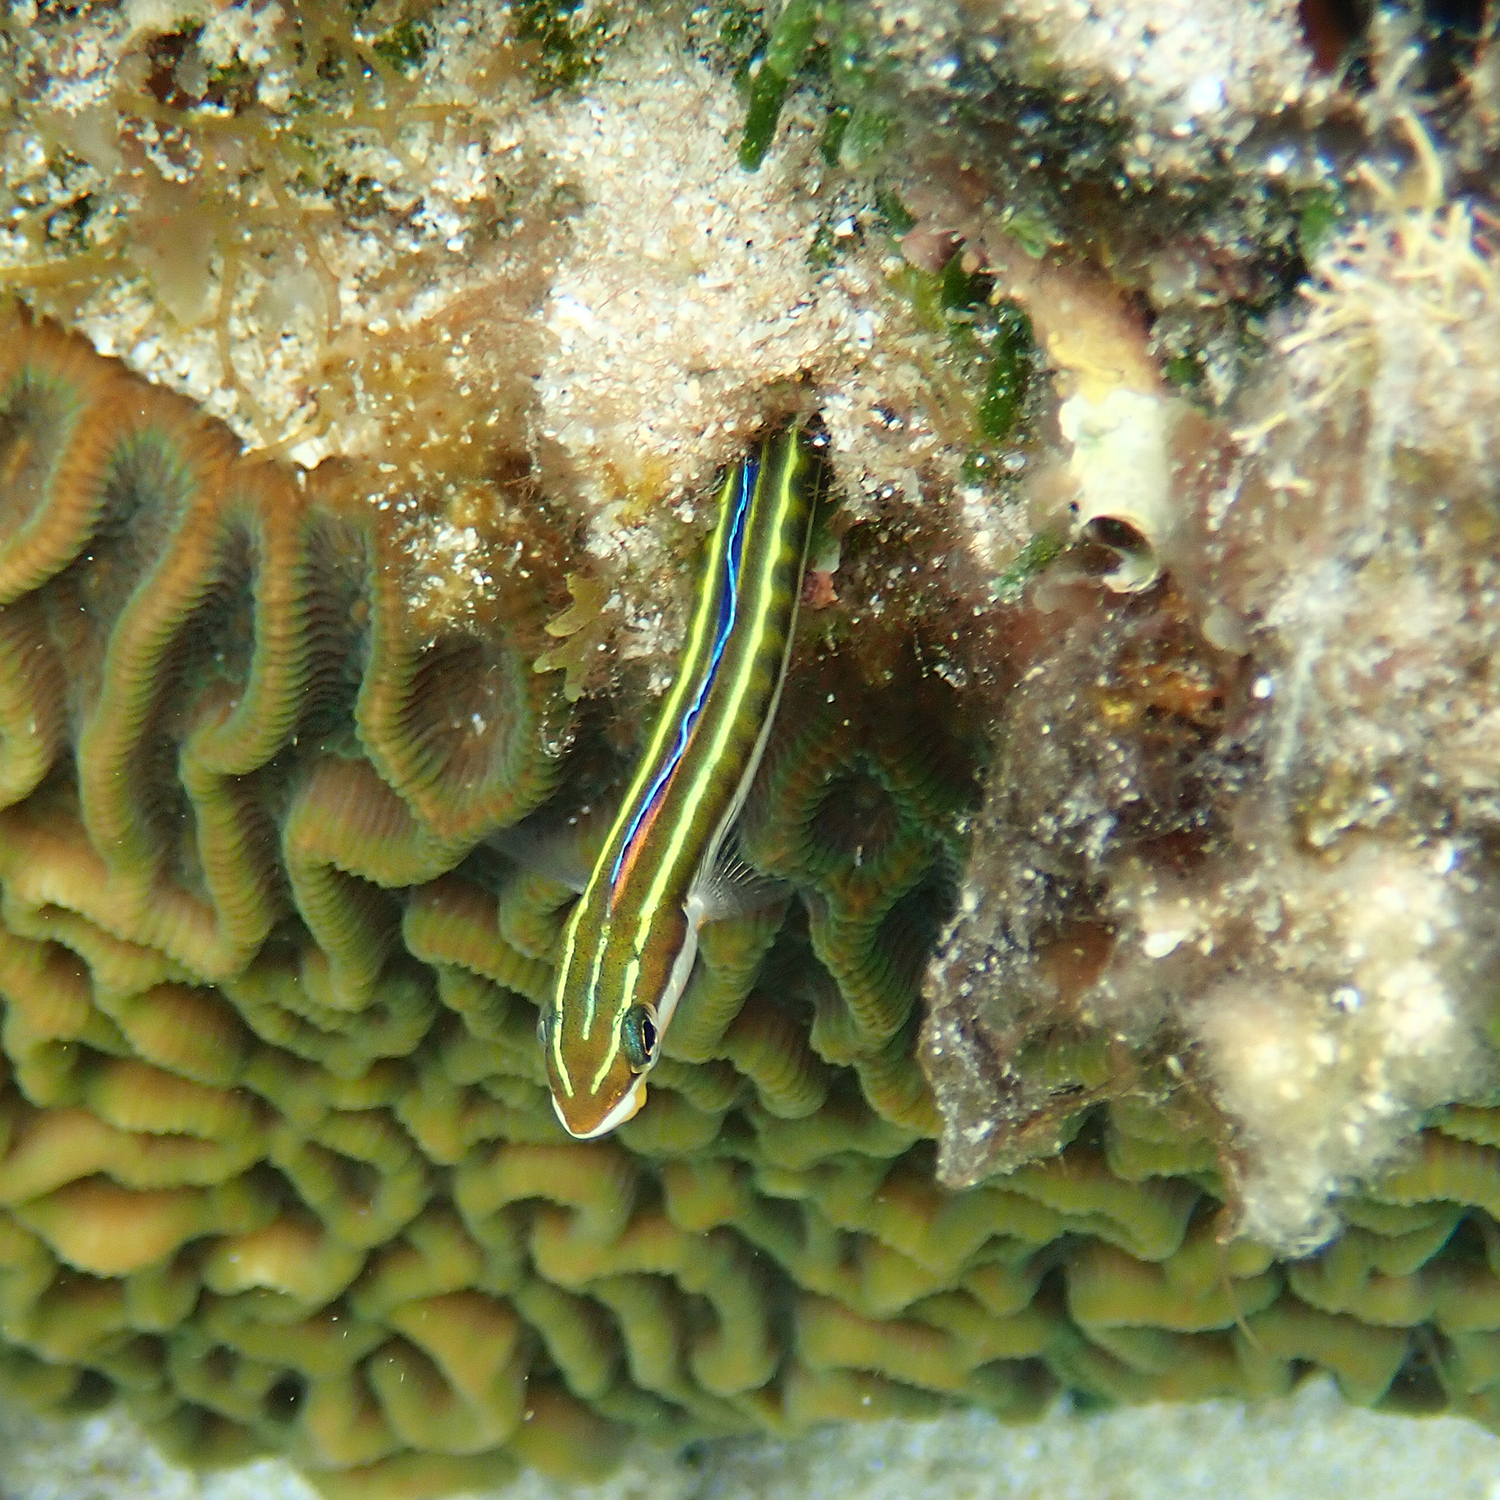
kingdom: Animalia
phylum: Chordata
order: Perciformes
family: Blenniidae
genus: Plagiotremus
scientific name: Plagiotremus tapeinosoma
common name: Hit and run blenny
